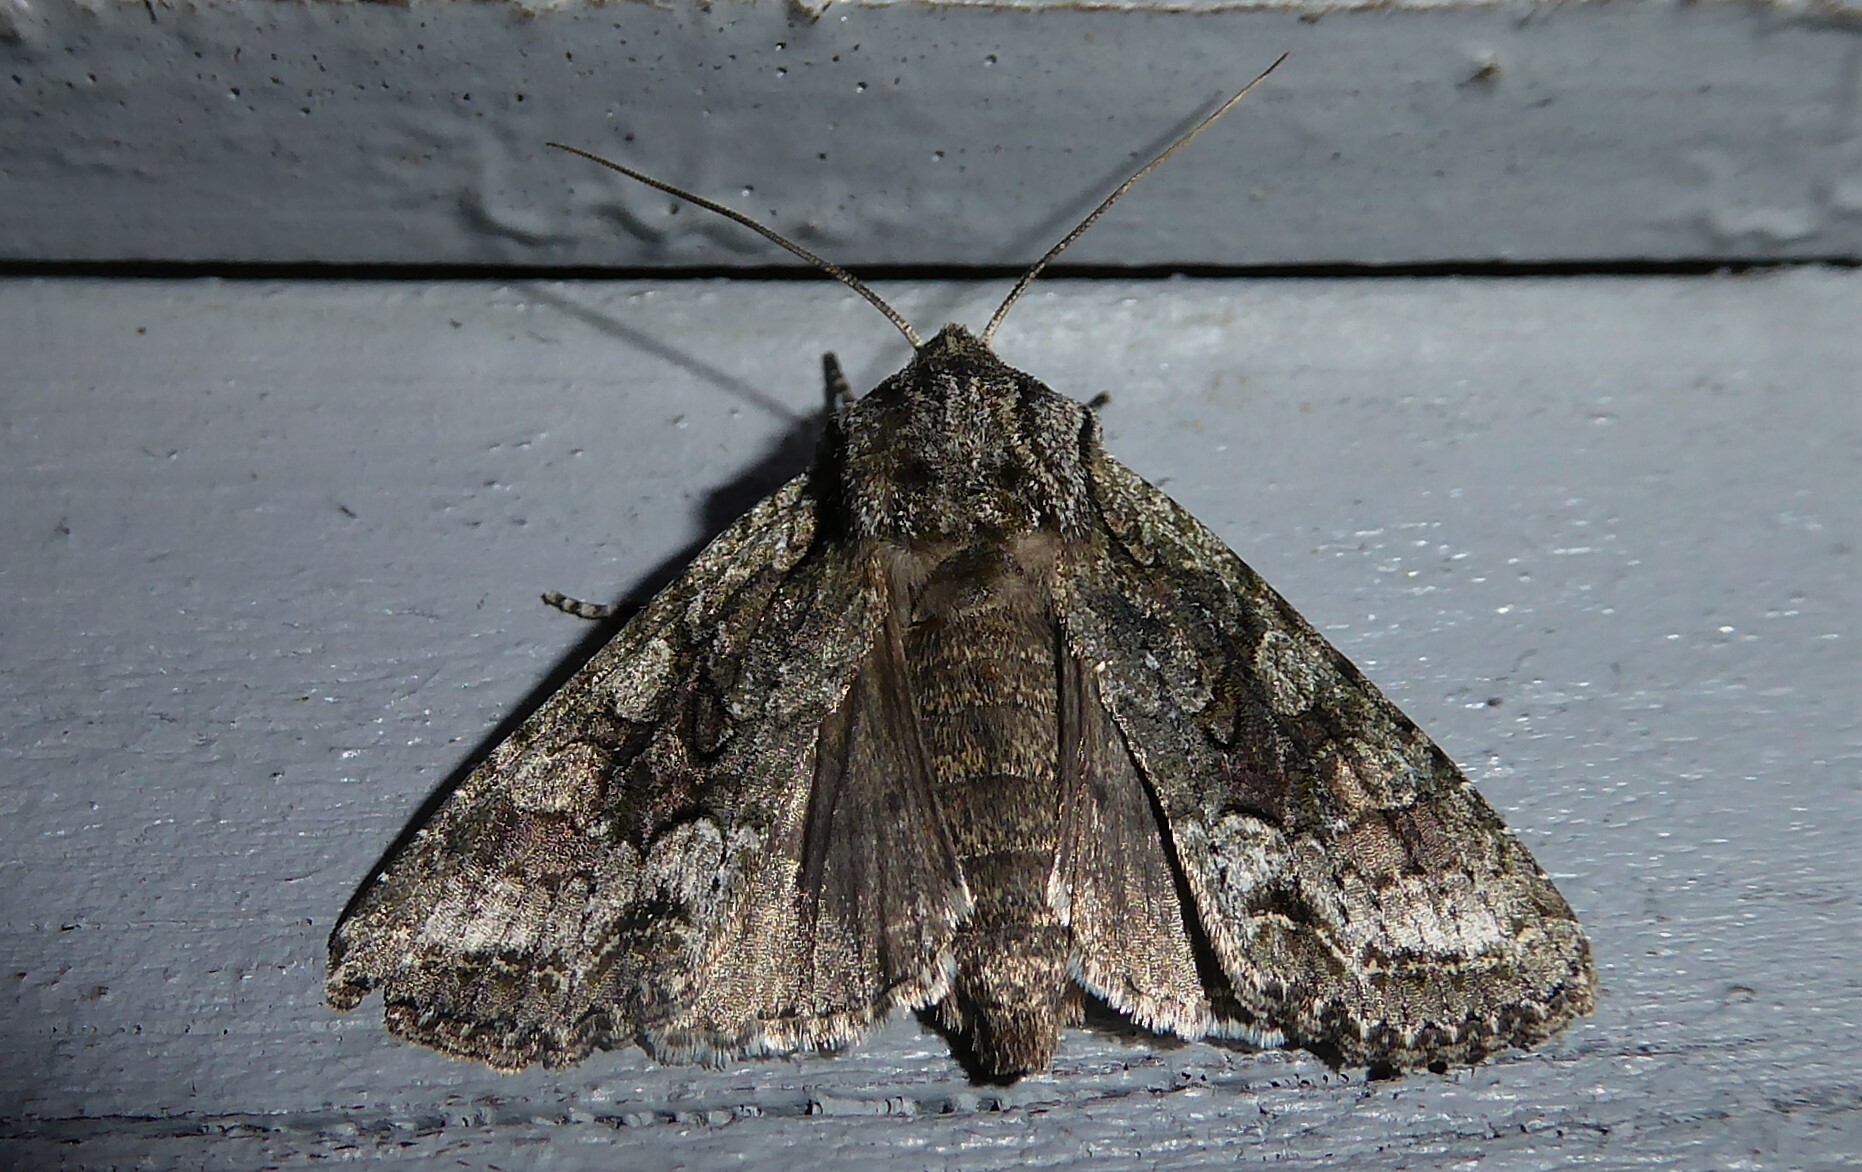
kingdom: Animalia
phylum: Arthropoda
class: Insecta
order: Lepidoptera
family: Noctuidae
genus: Ichneutica
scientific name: Ichneutica mutans
